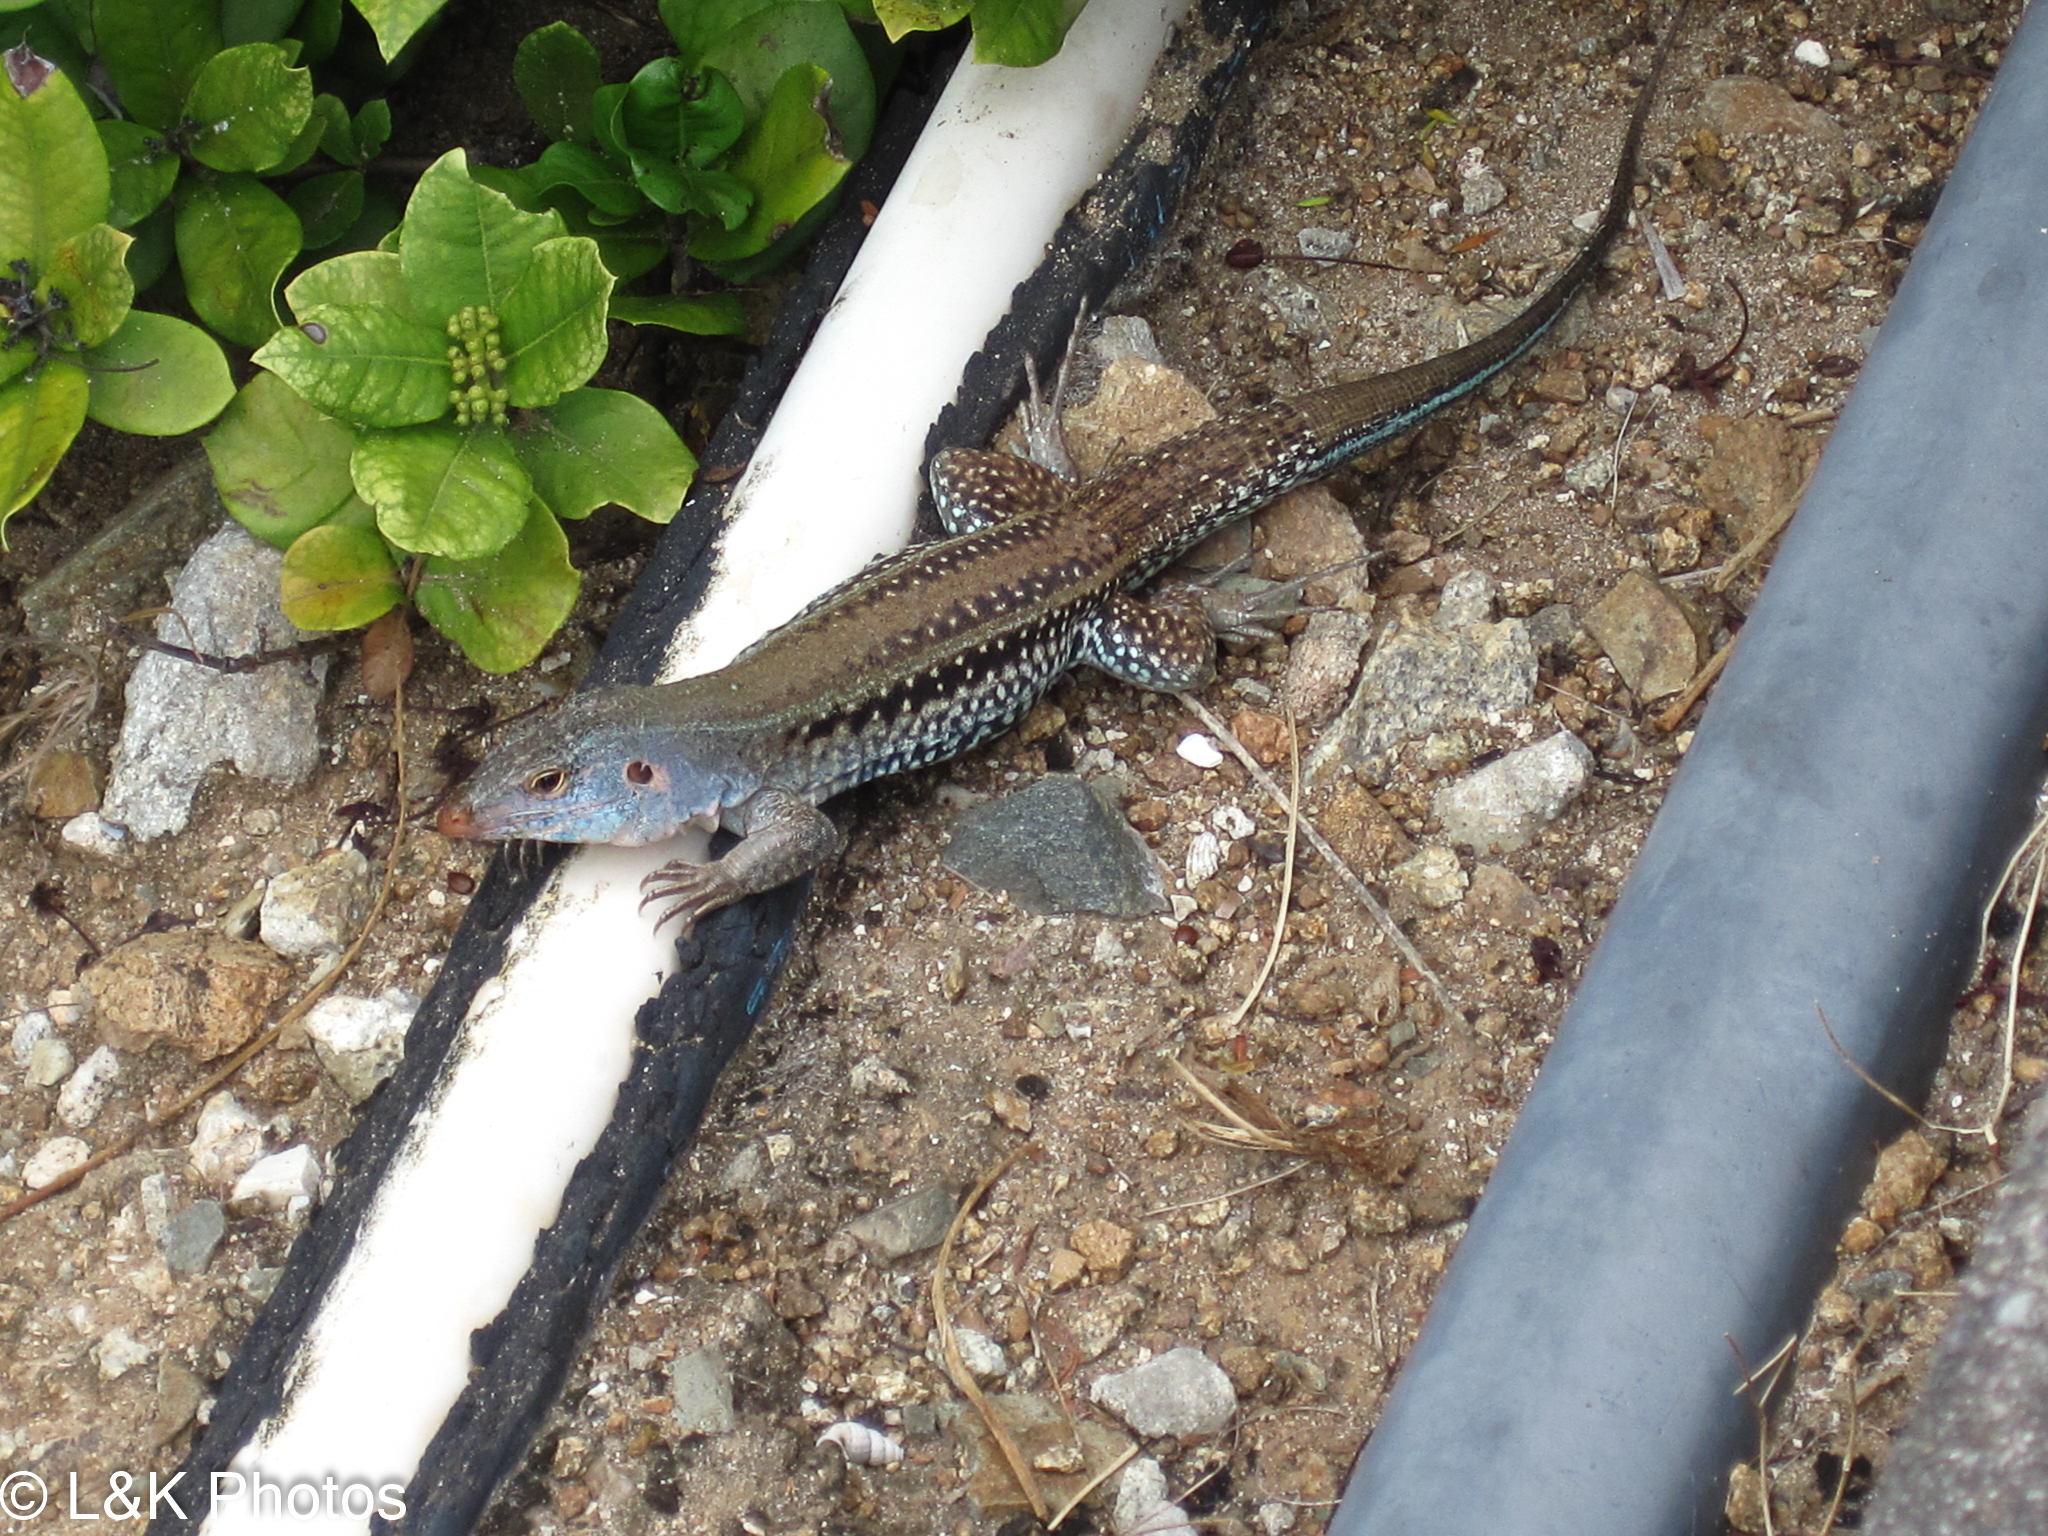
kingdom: Animalia
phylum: Chordata
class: Squamata
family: Teiidae
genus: Pholidoscelis
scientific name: Pholidoscelis exsul
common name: Common puerto rican ameiva
